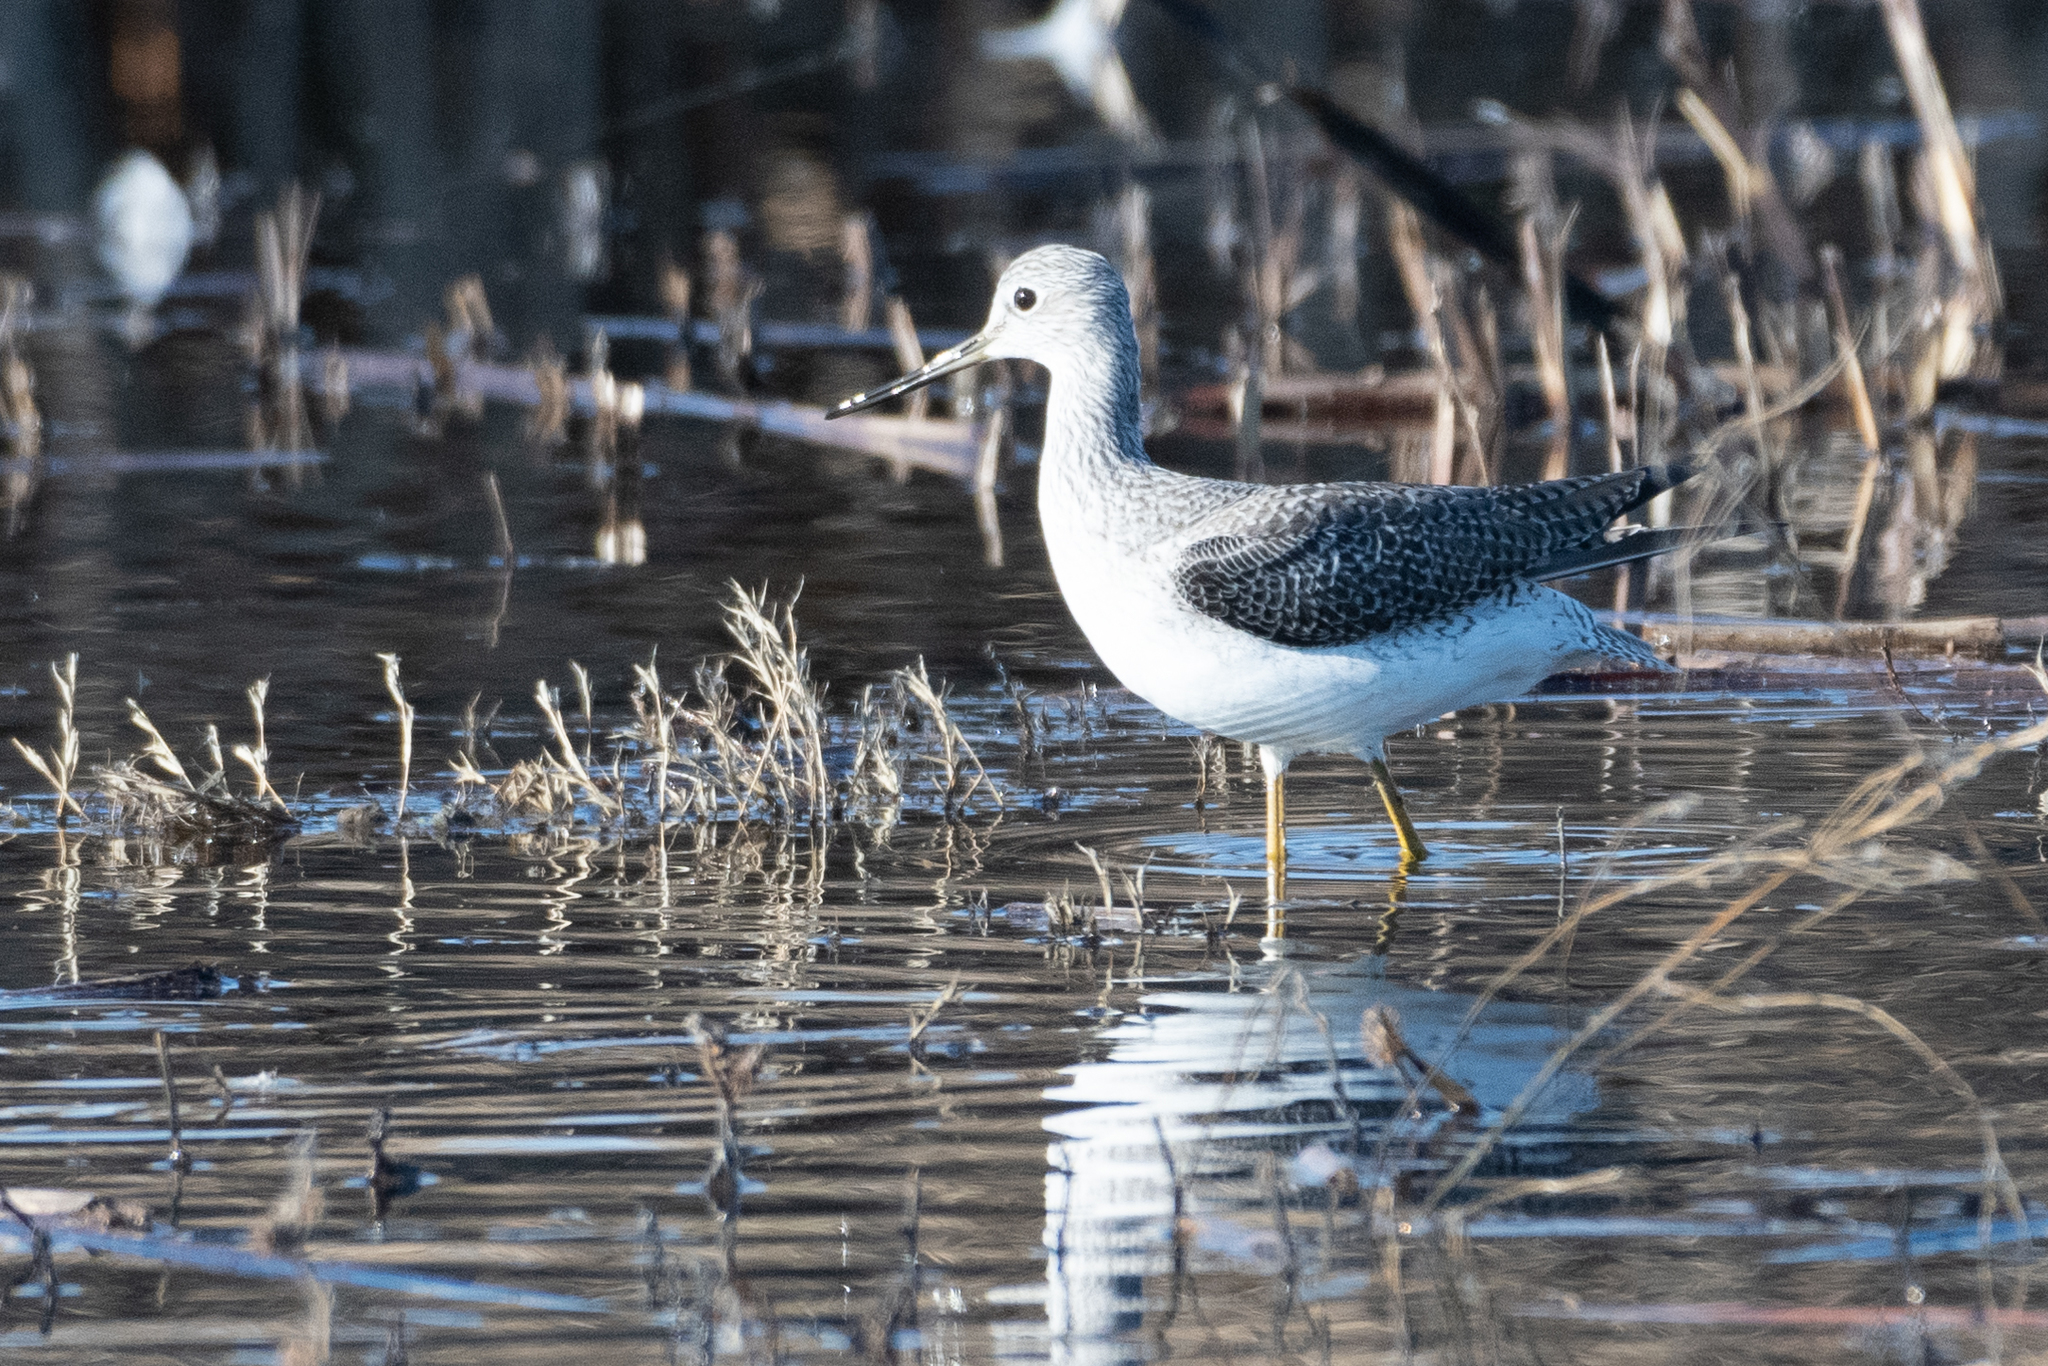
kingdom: Animalia
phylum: Chordata
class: Aves
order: Charadriiformes
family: Scolopacidae
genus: Tringa
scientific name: Tringa melanoleuca
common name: Greater yellowlegs
